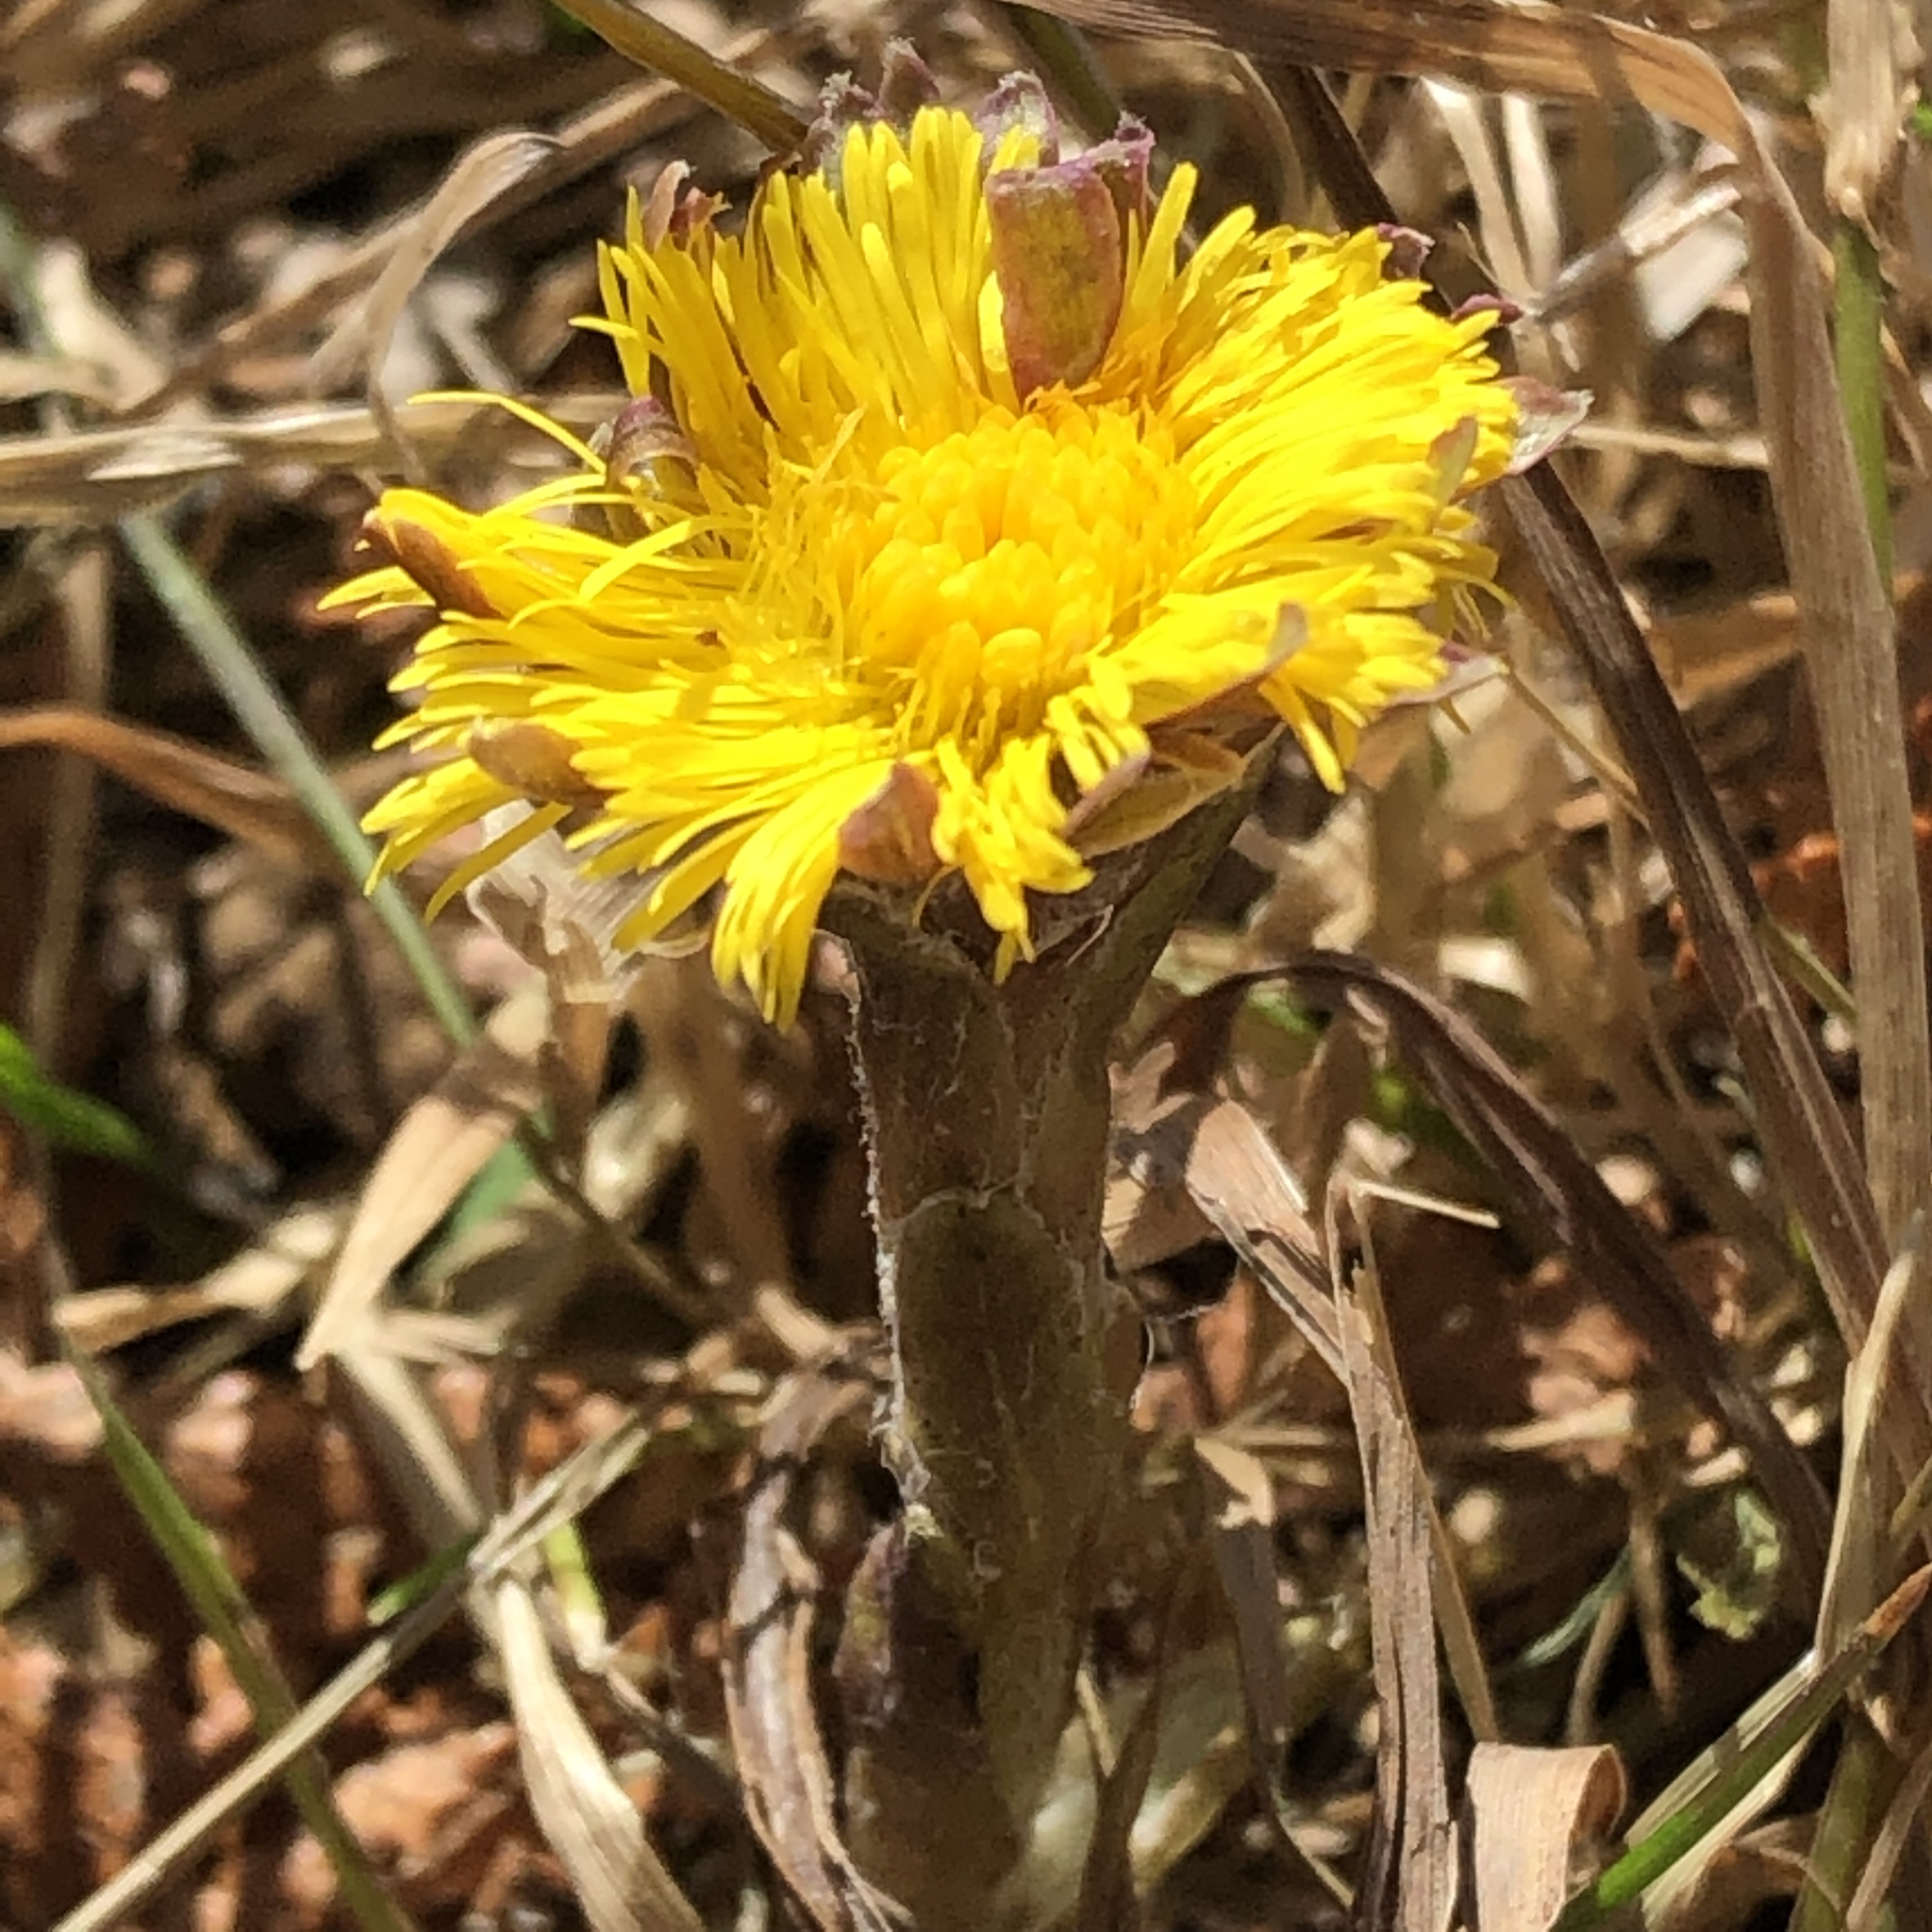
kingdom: Plantae
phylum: Tracheophyta
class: Magnoliopsida
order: Asterales
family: Asteraceae
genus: Tussilago
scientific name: Tussilago farfara
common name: Coltsfoot
